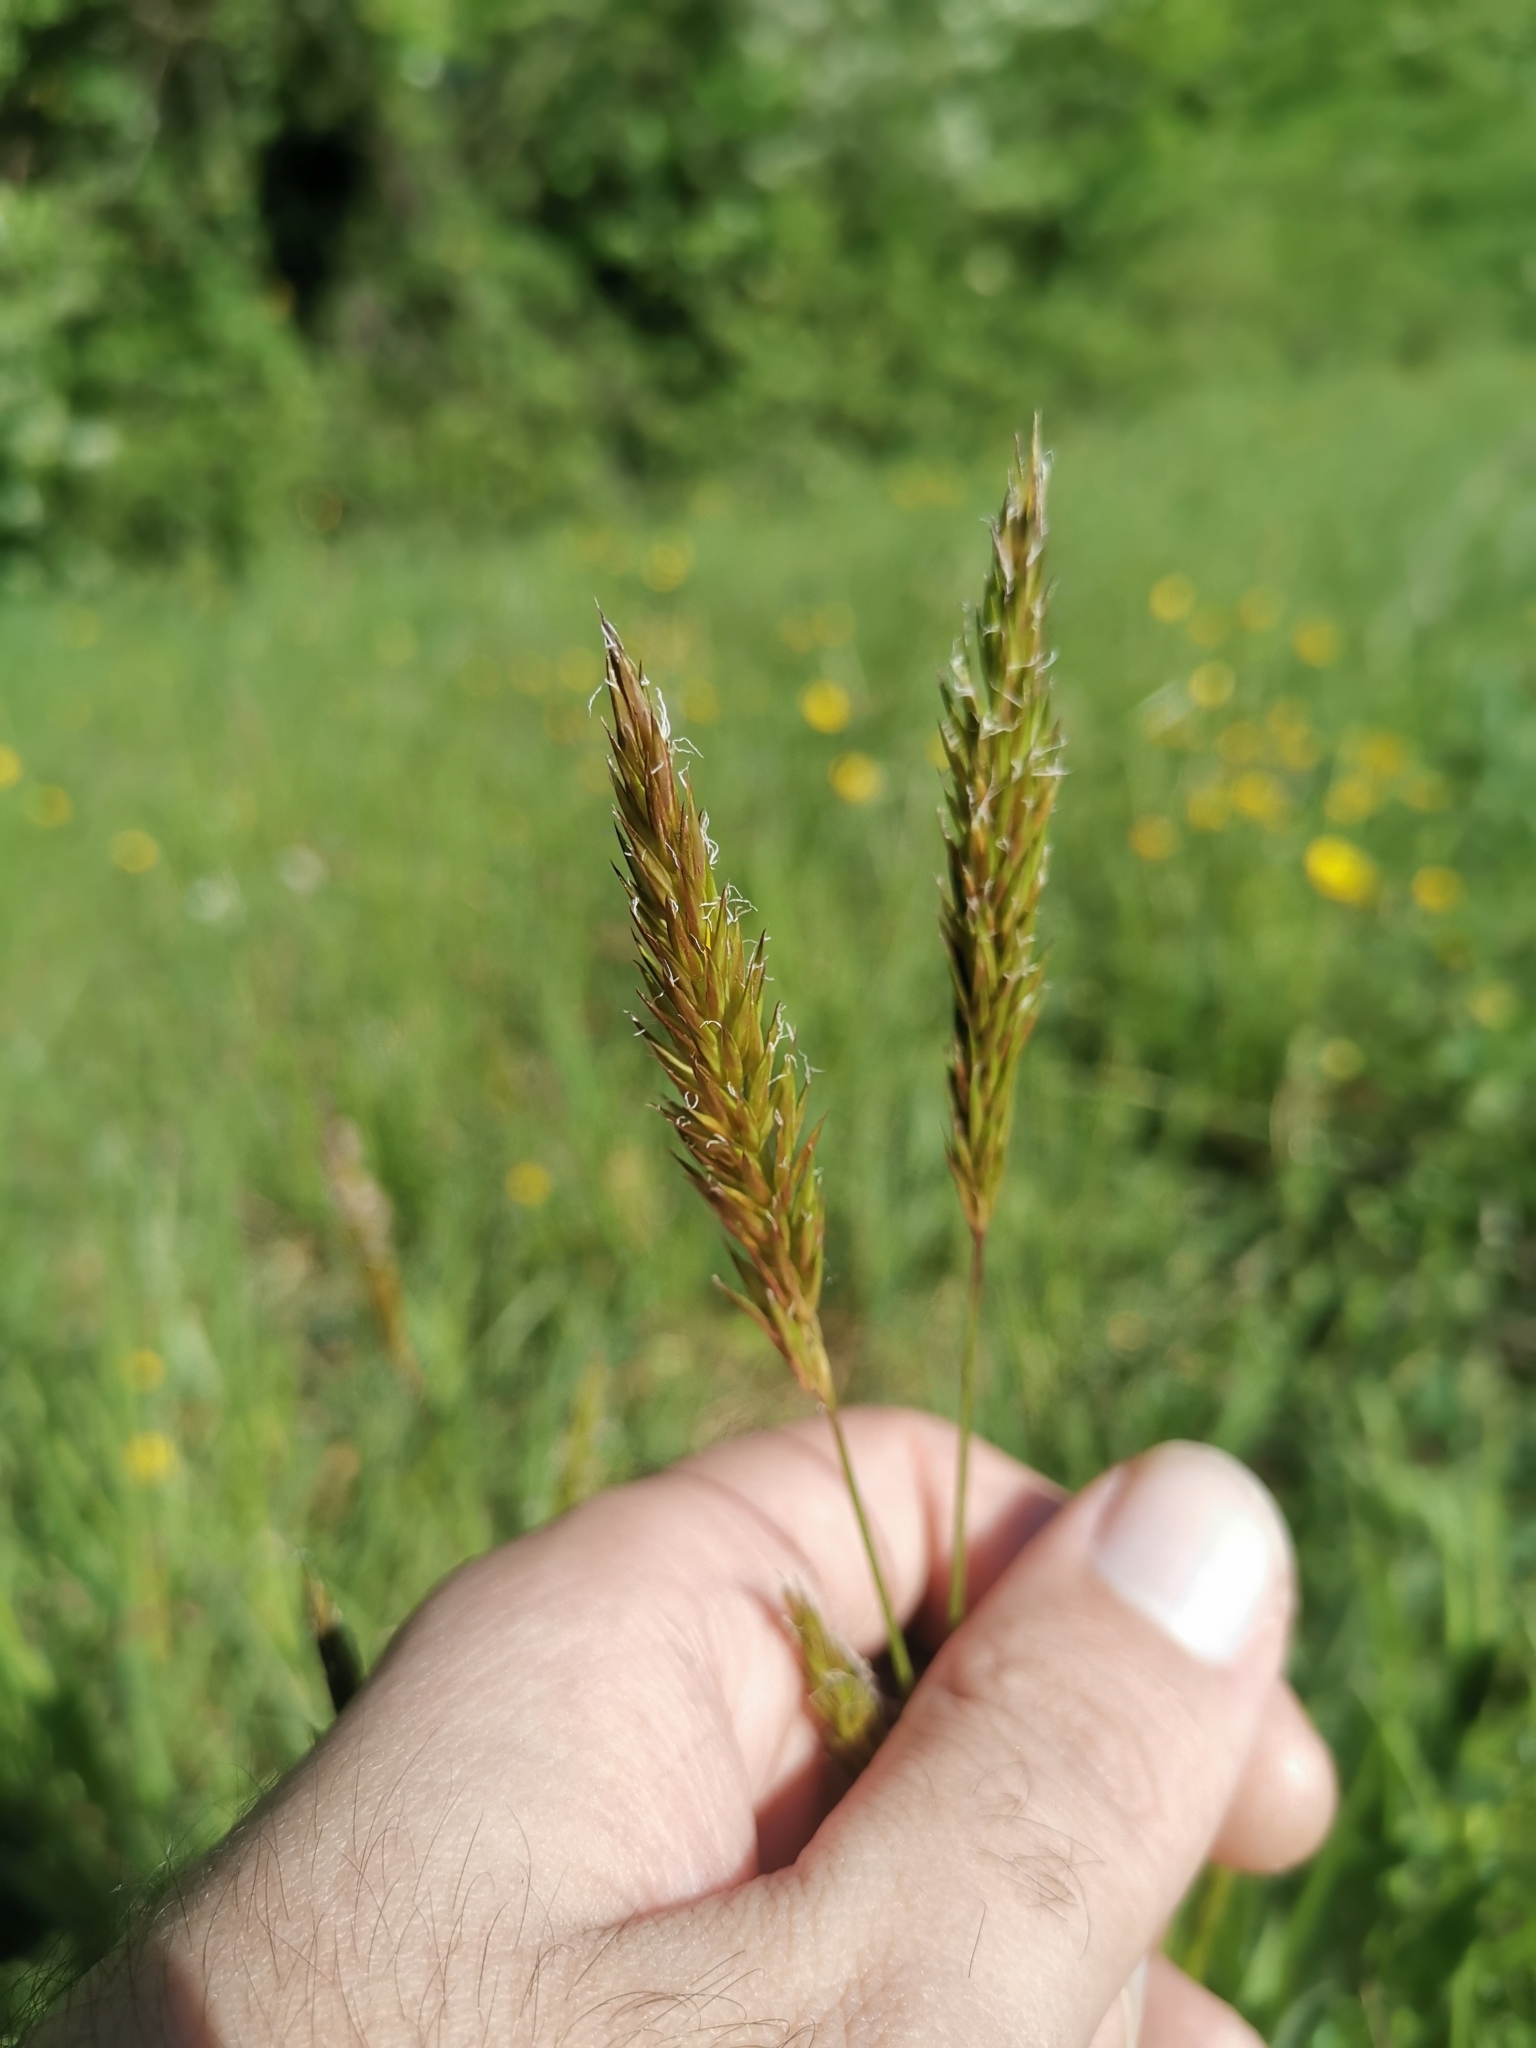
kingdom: Plantae
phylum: Tracheophyta
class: Liliopsida
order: Poales
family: Poaceae
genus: Anthoxanthum
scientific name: Anthoxanthum odoratum
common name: Sweet vernalgrass
